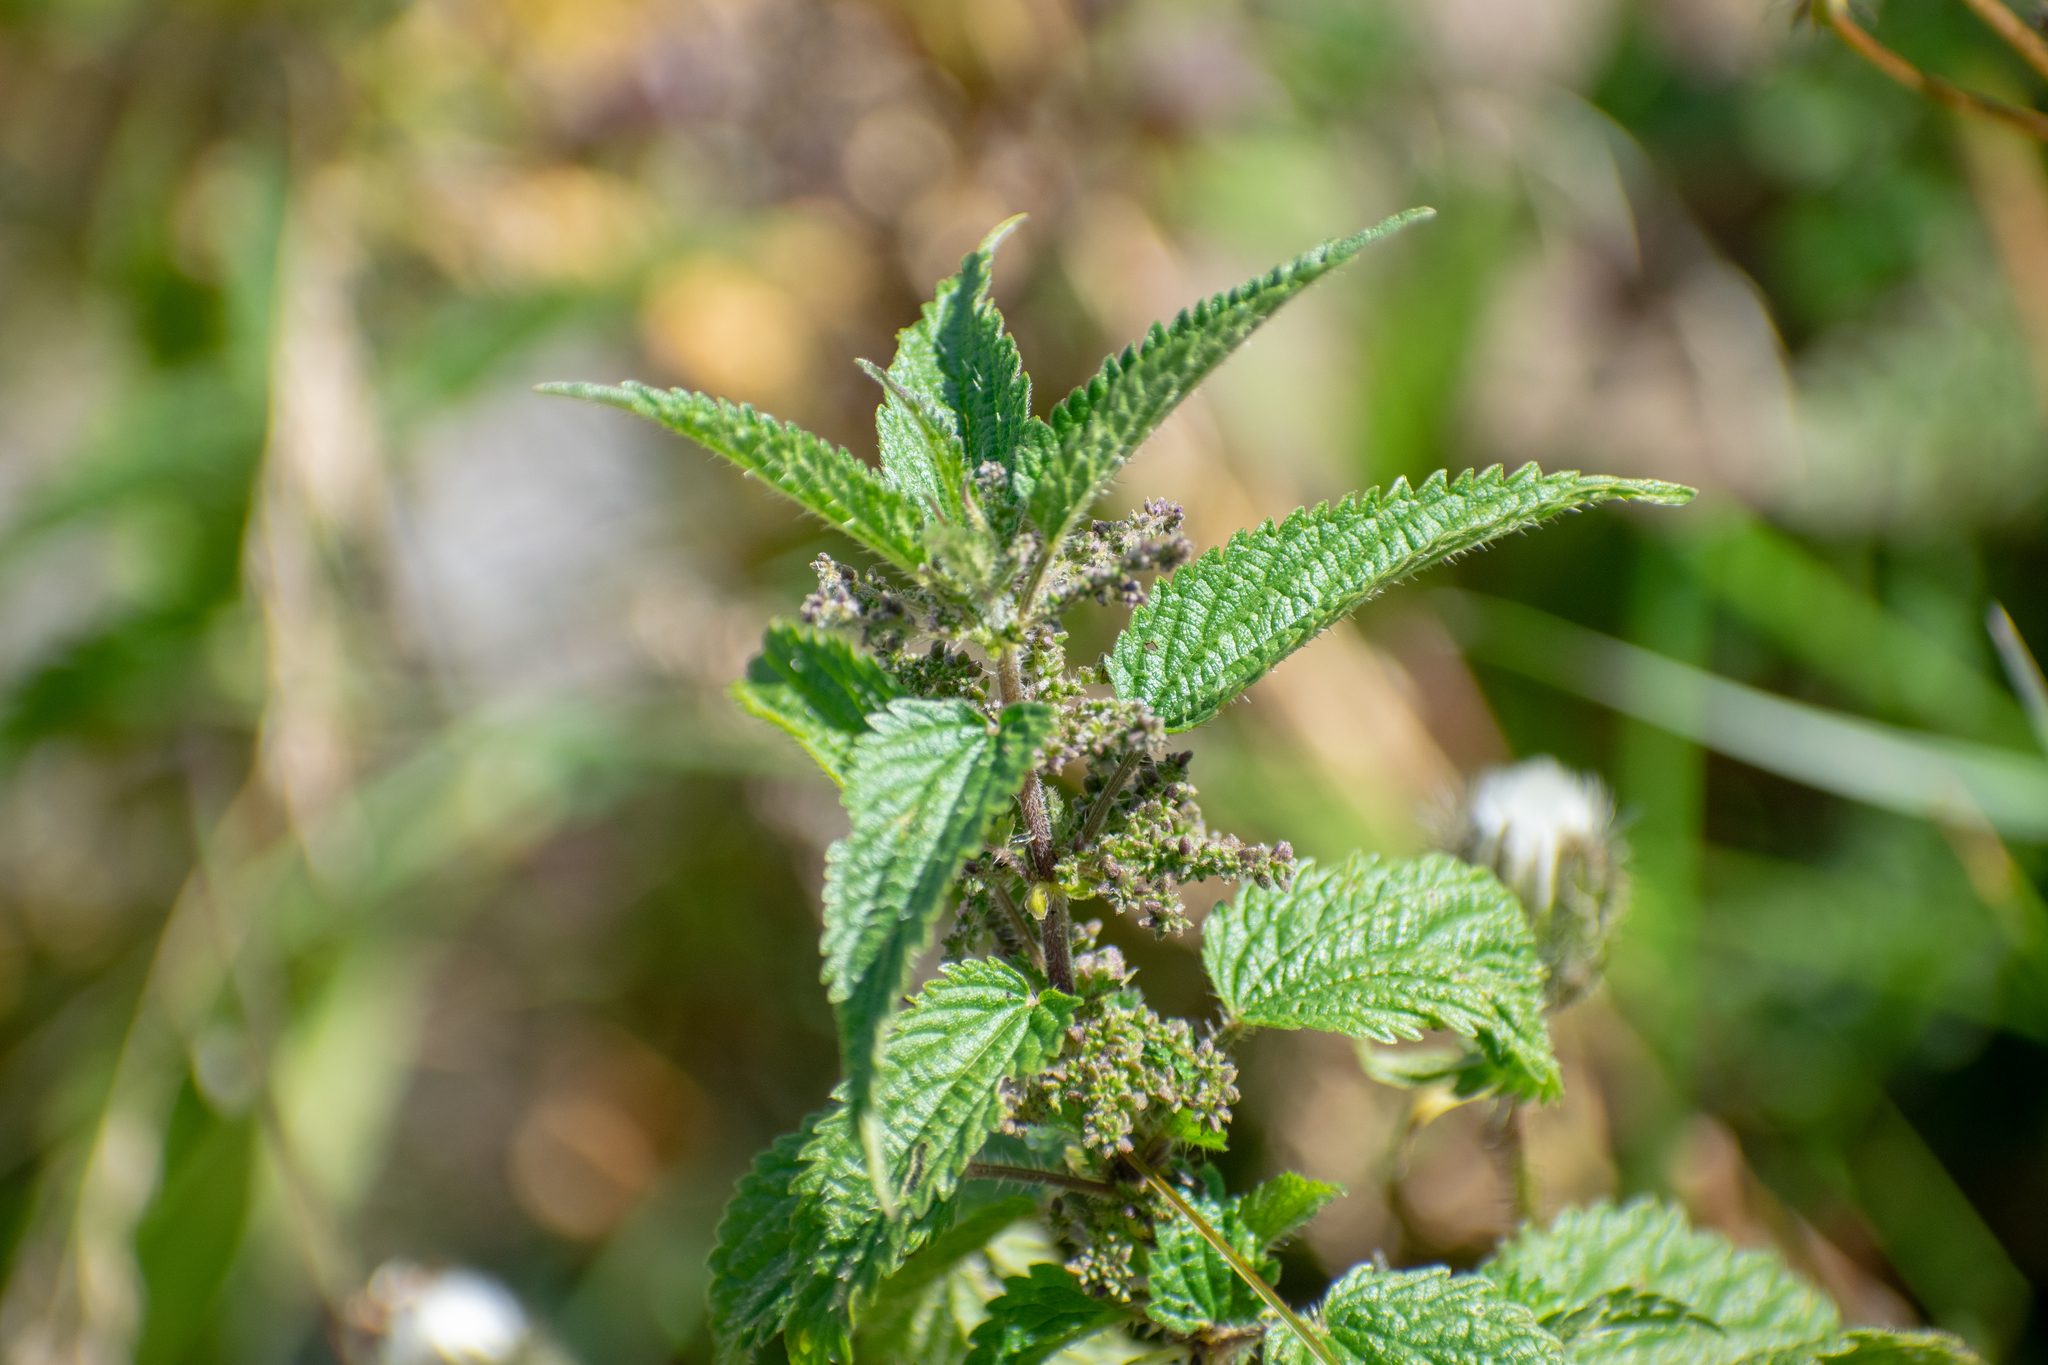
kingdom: Plantae
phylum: Tracheophyta
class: Magnoliopsida
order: Rosales
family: Urticaceae
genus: Urtica
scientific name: Urtica dioica
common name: Common nettle
